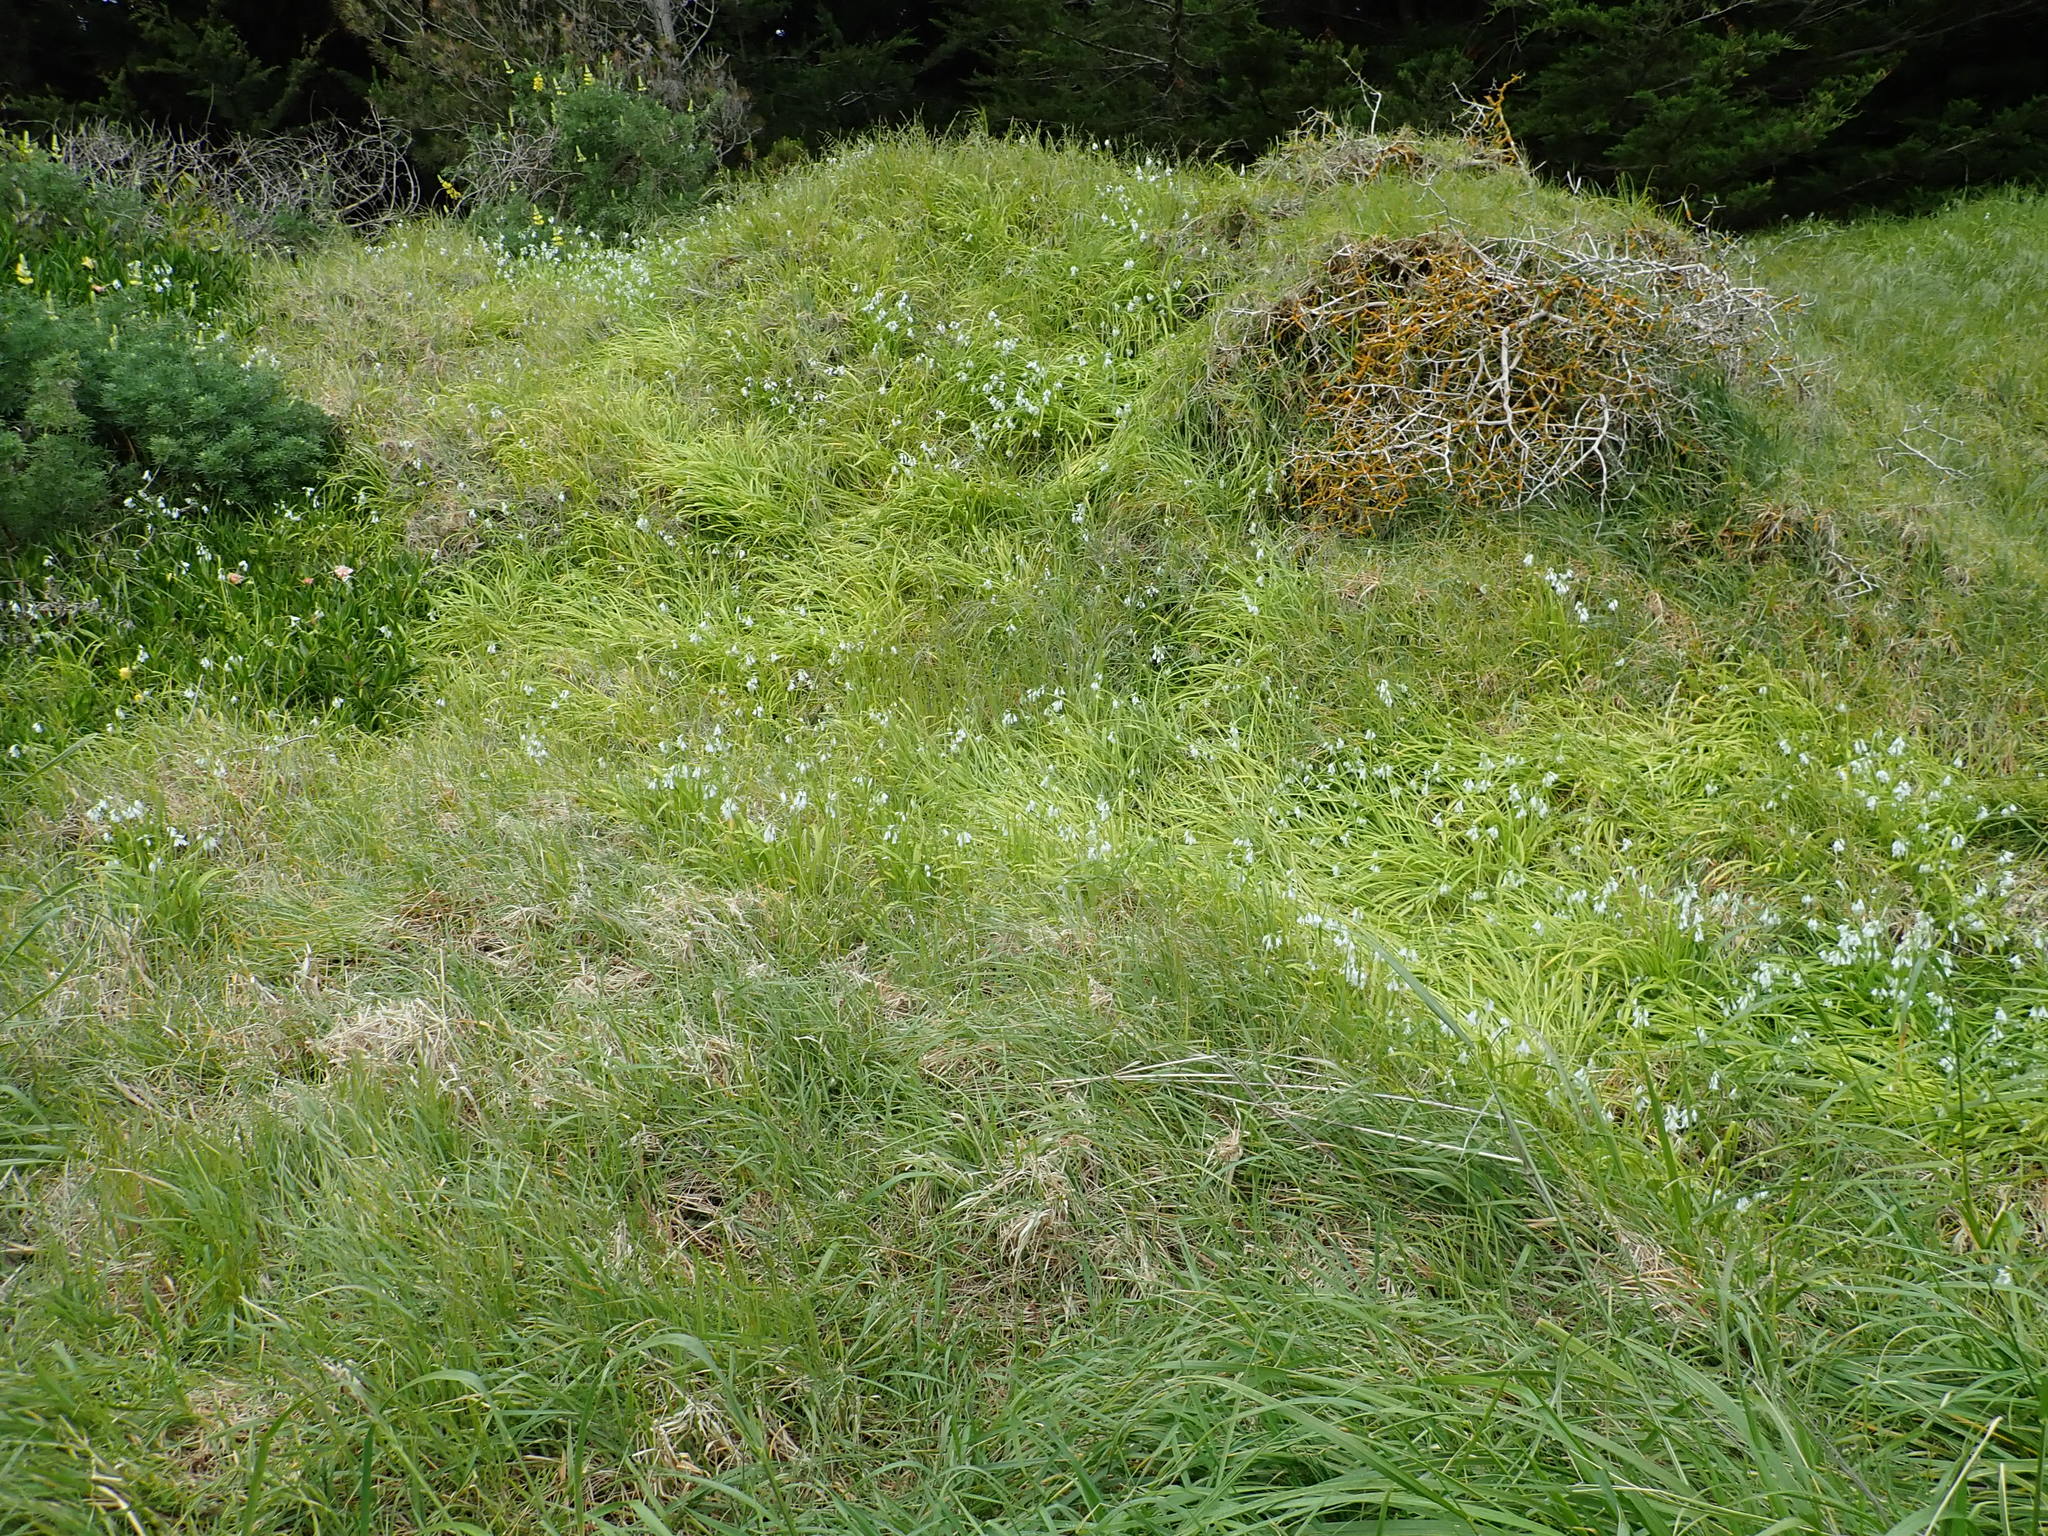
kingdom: Plantae
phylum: Tracheophyta
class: Liliopsida
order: Asparagales
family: Amaryllidaceae
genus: Allium
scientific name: Allium triquetrum
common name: Three-cornered garlic
